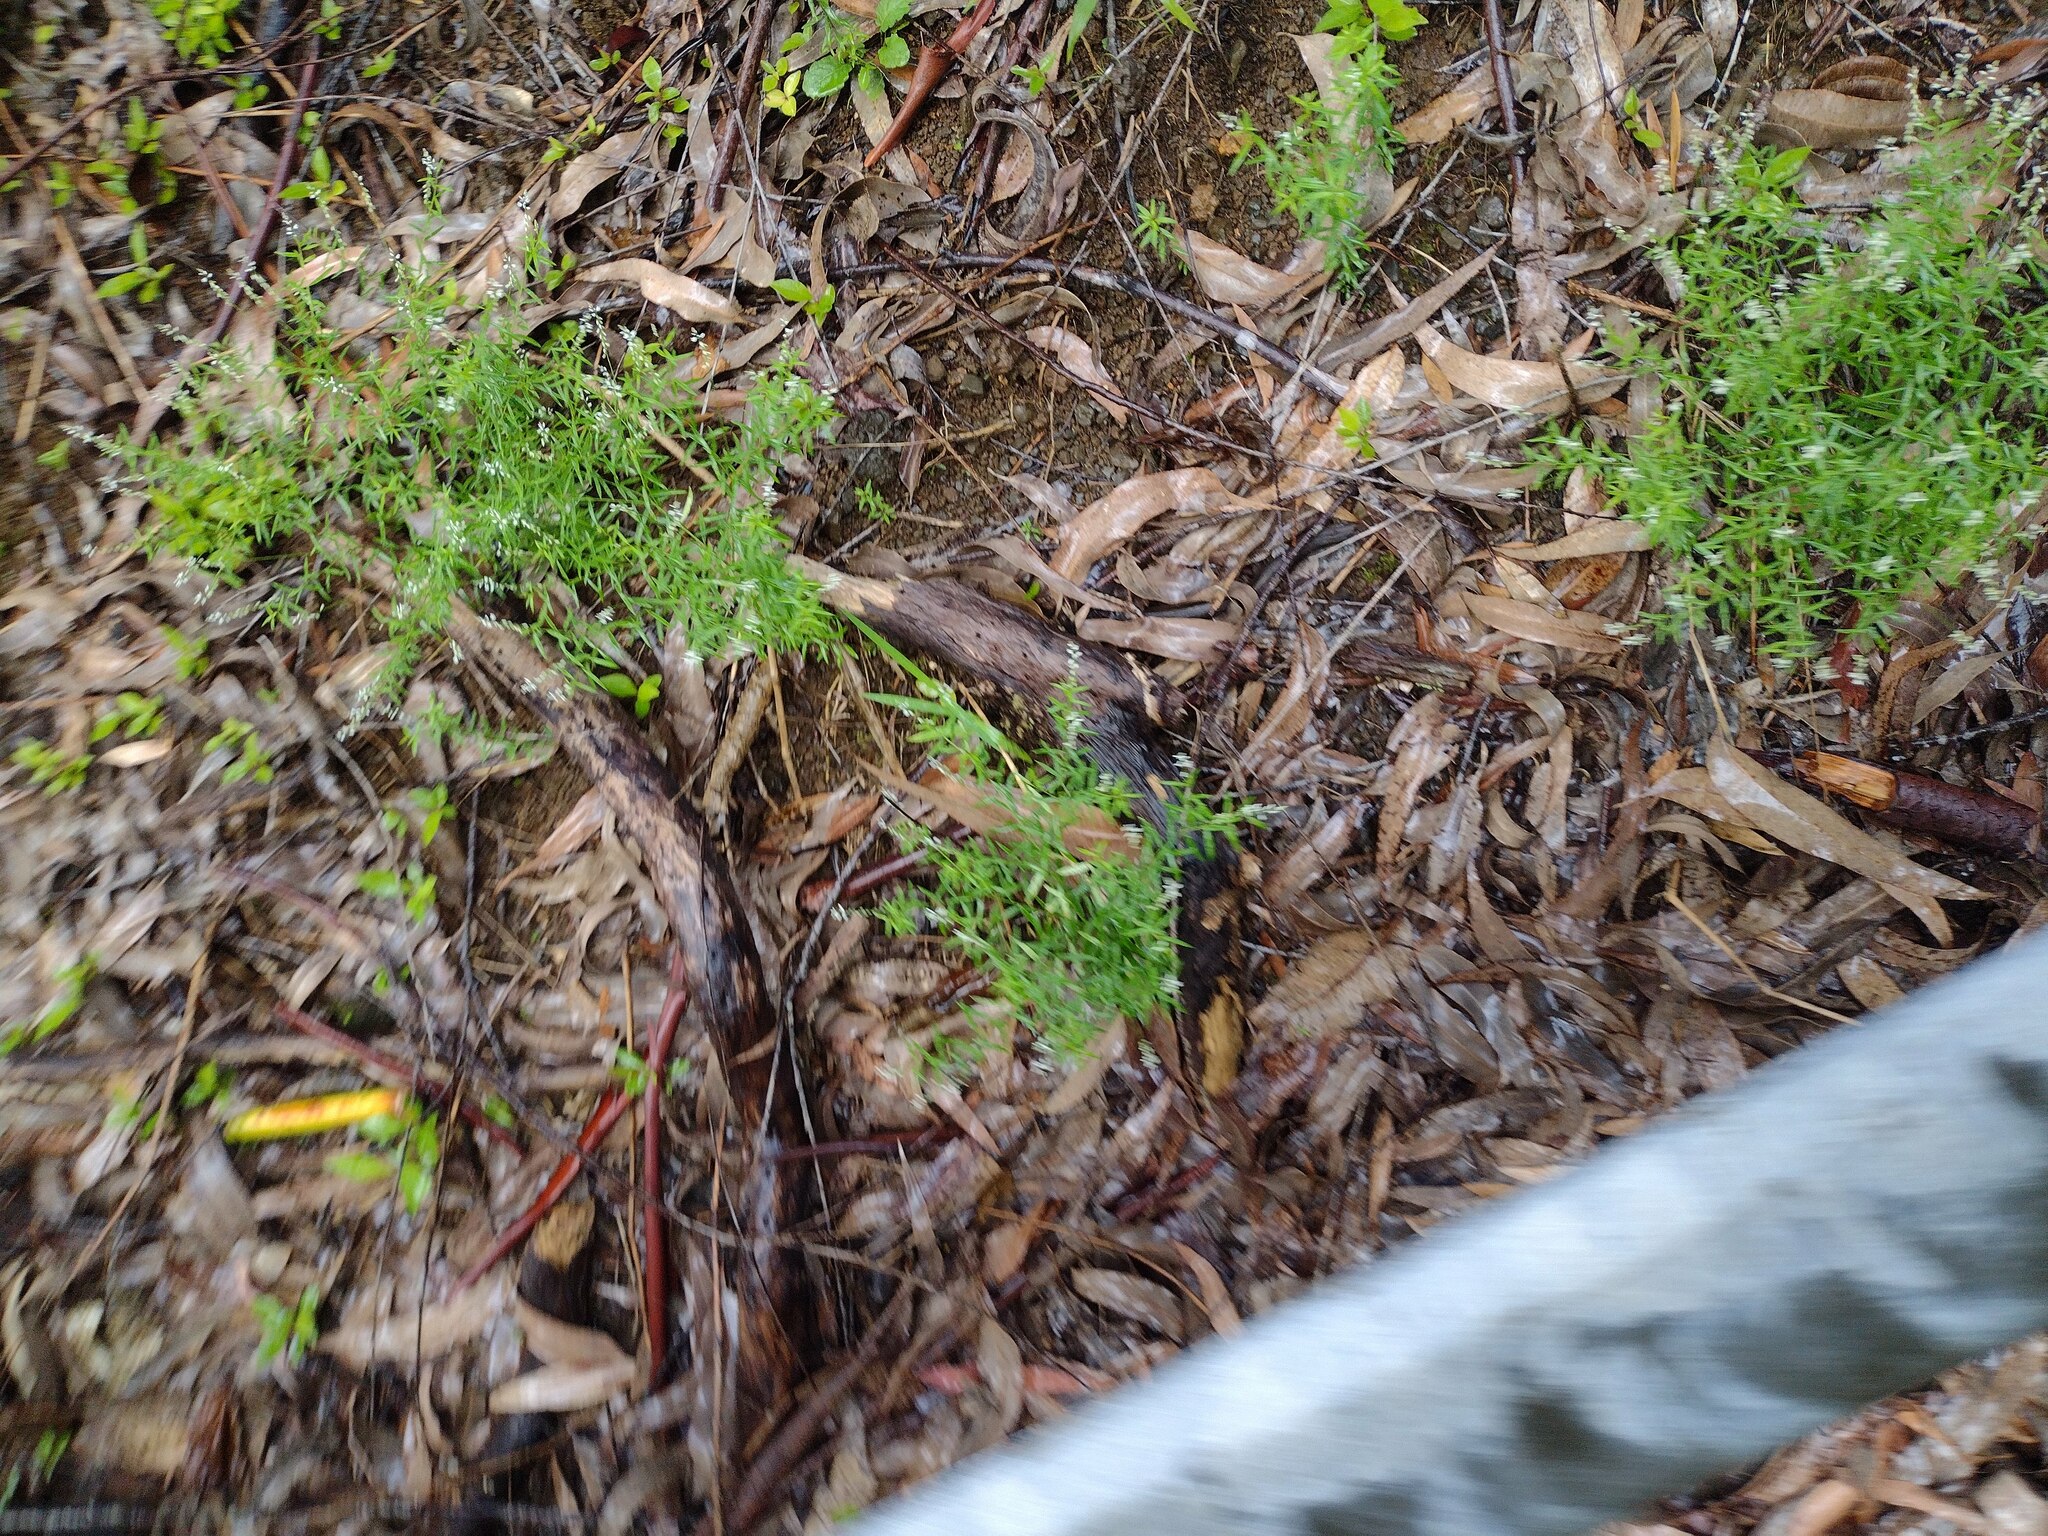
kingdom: Plantae
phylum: Tracheophyta
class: Magnoliopsida
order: Fabales
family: Polygalaceae
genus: Polygala
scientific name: Polygala paniculata
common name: Orosne
